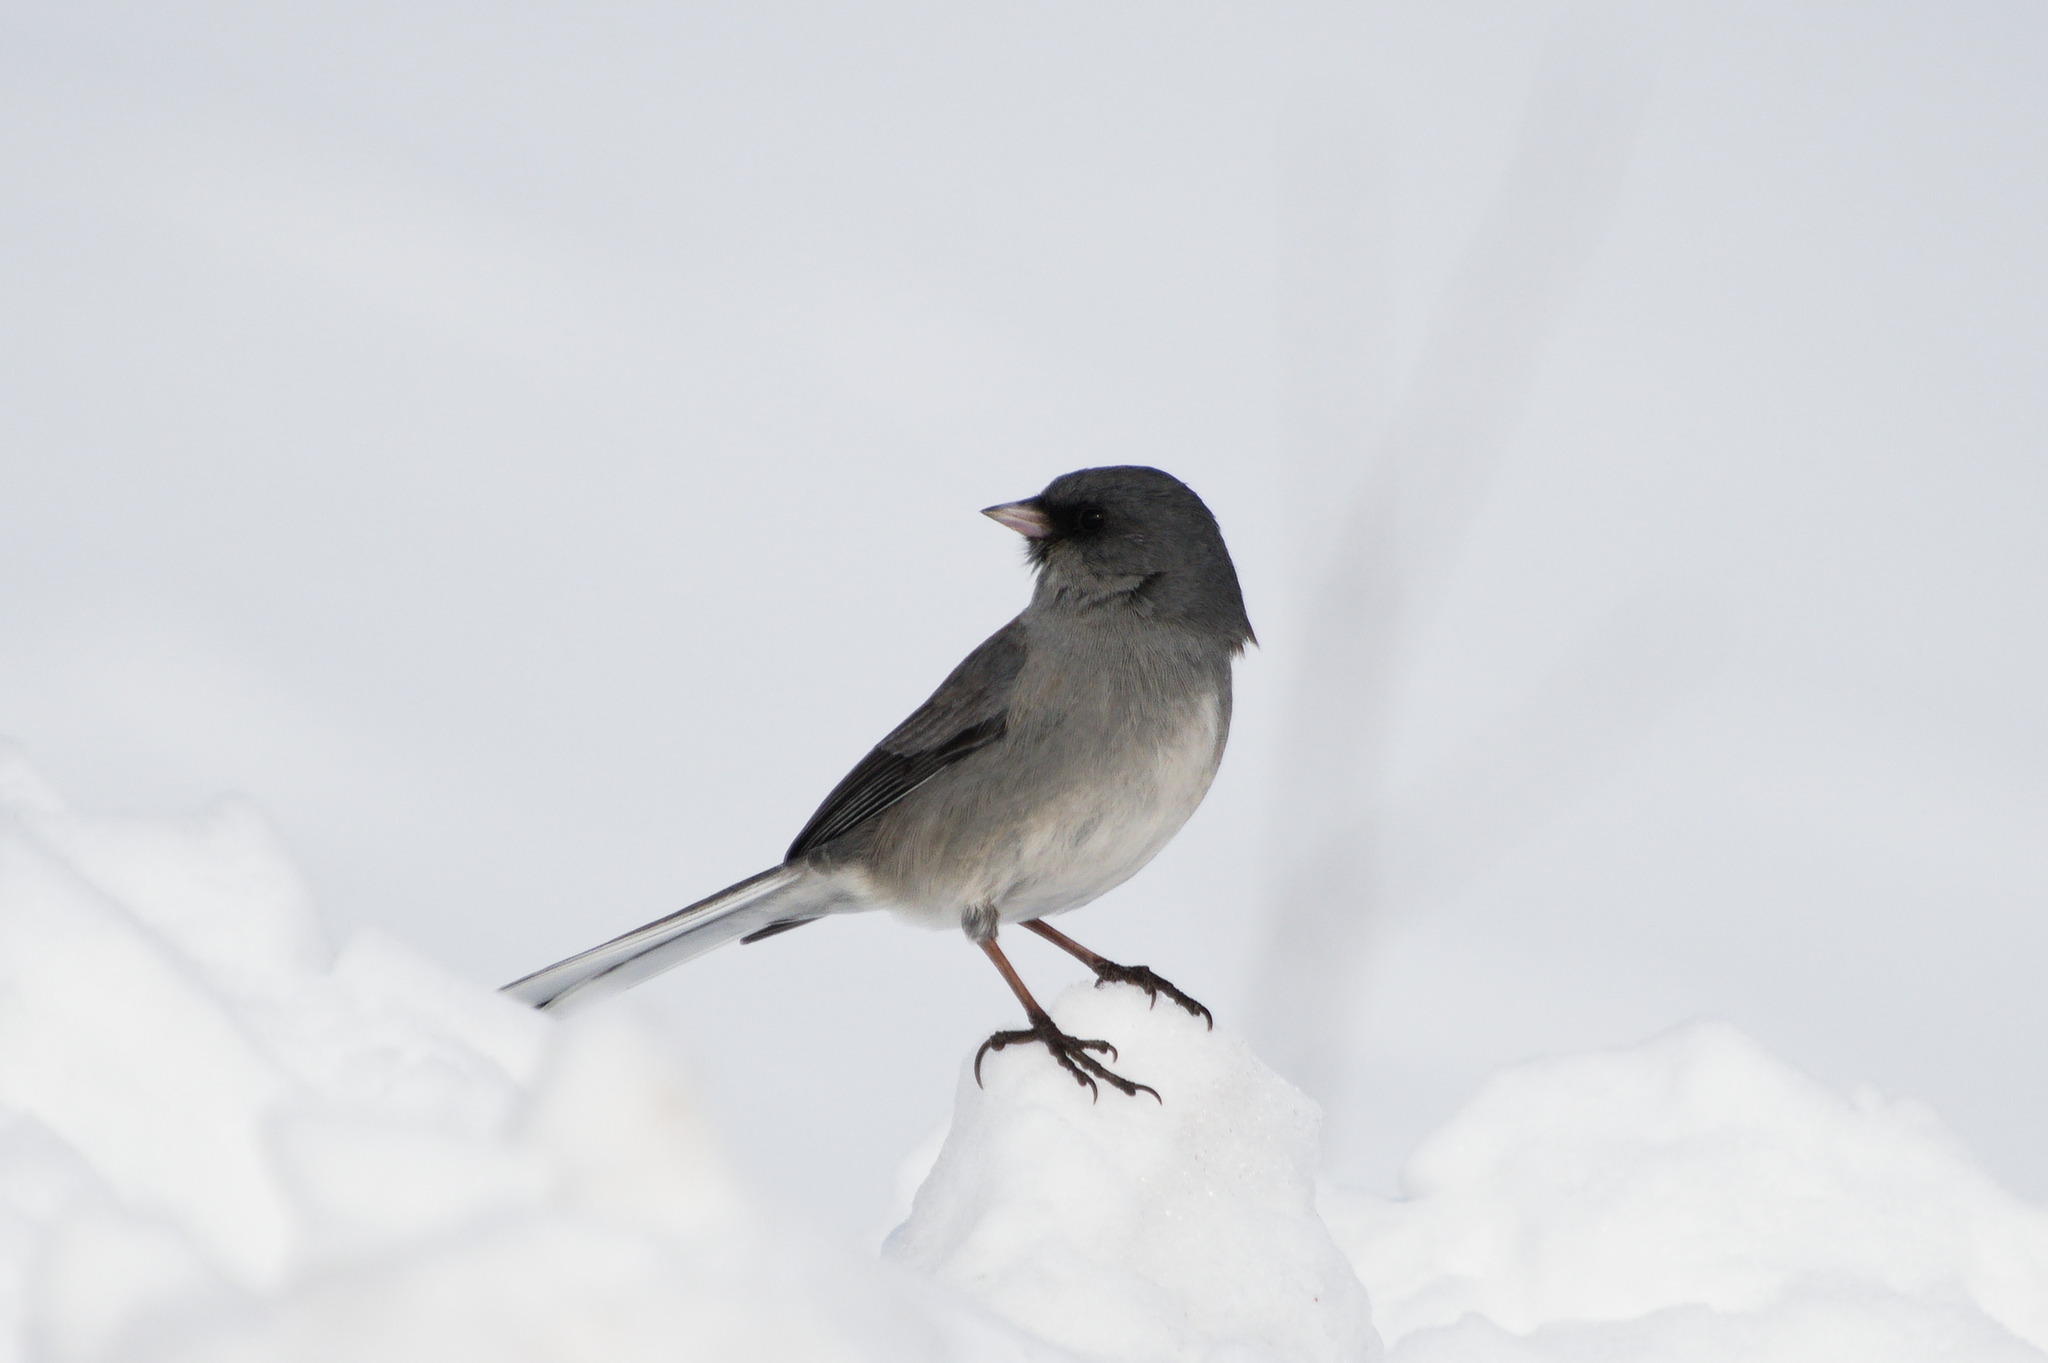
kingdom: Animalia
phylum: Chordata
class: Aves
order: Passeriformes
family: Passerellidae
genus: Junco
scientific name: Junco hyemalis
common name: Dark-eyed junco
